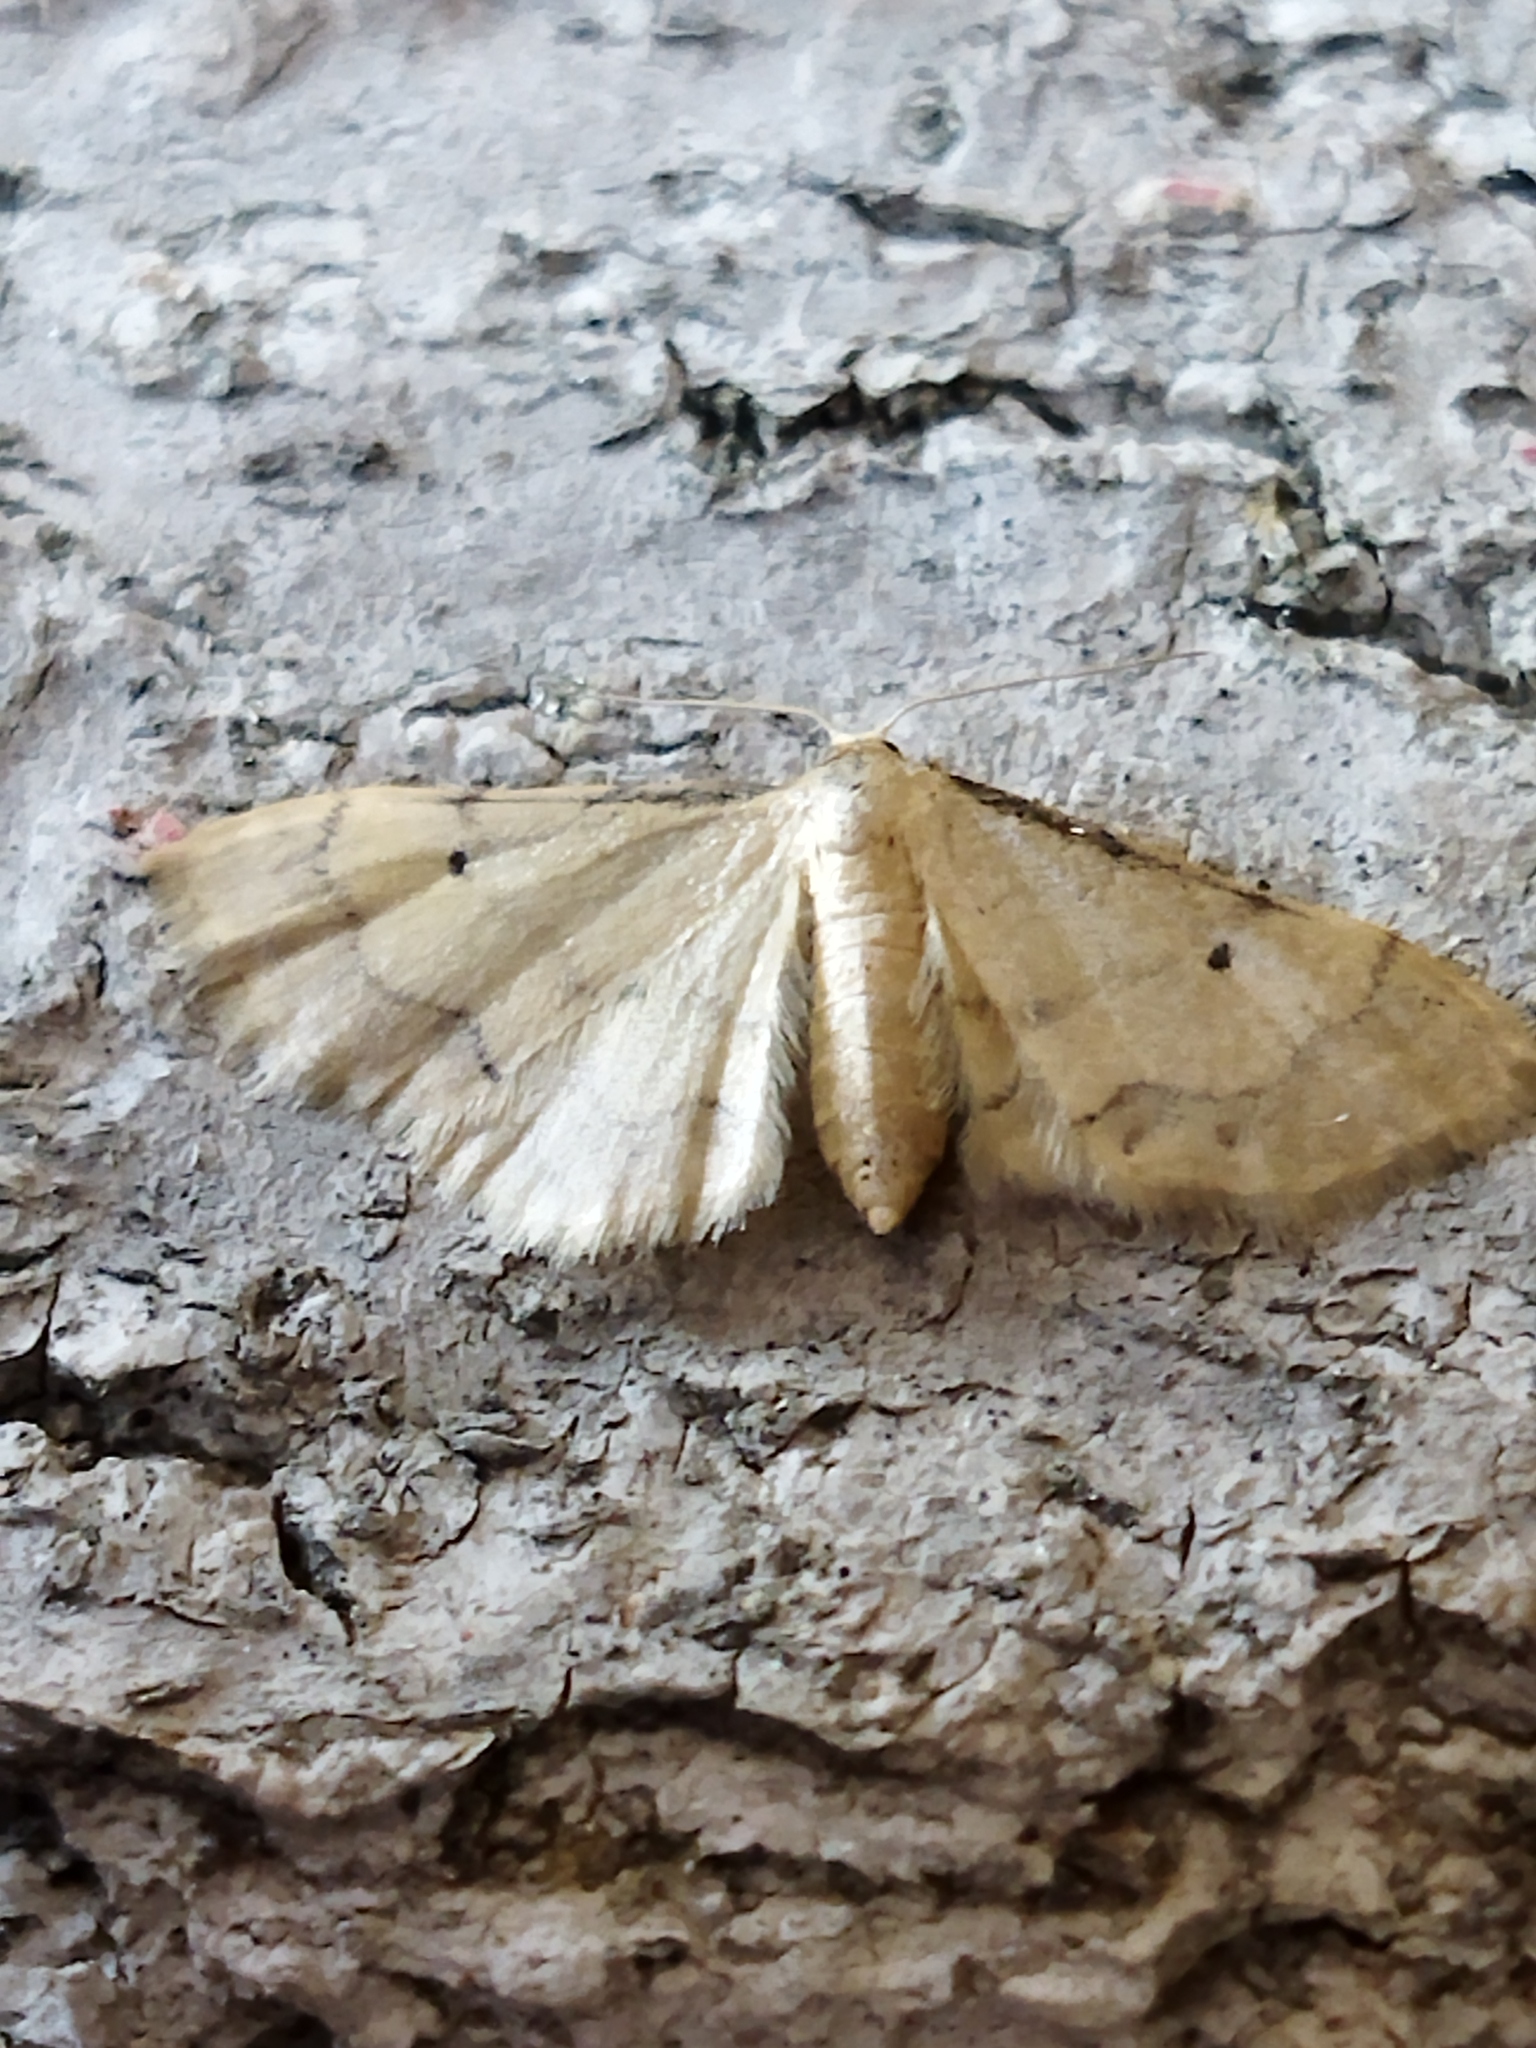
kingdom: Animalia
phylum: Arthropoda
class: Insecta
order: Lepidoptera
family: Geometridae
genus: Idaea
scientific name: Idaea politaria
